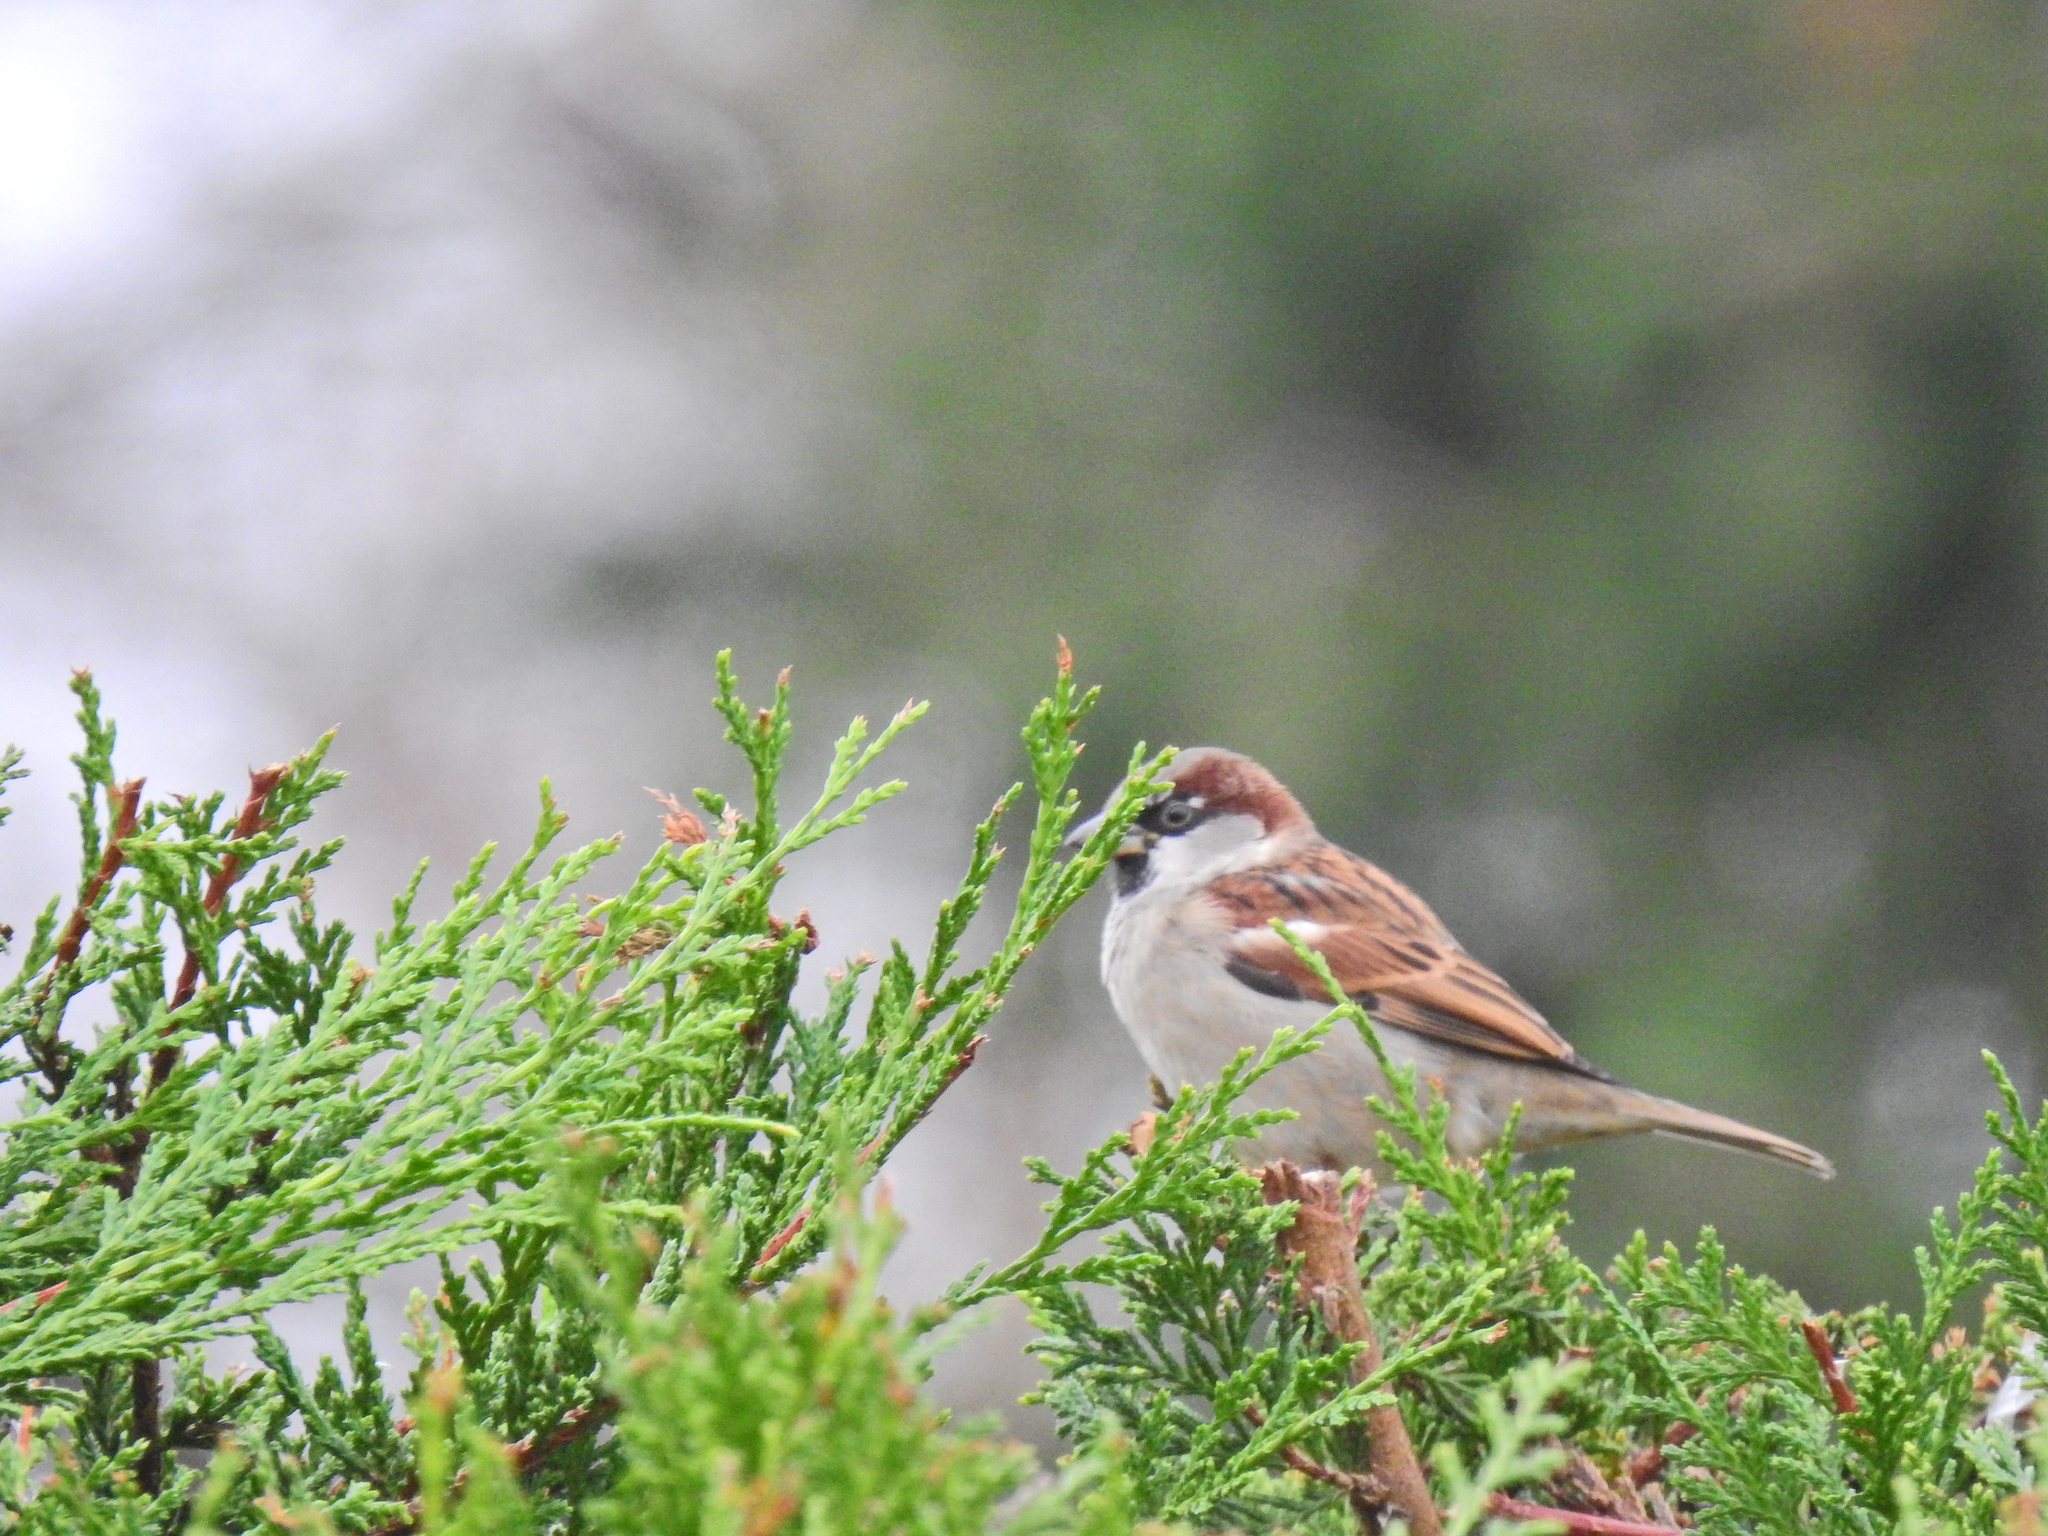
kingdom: Animalia
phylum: Chordata
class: Aves
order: Passeriformes
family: Passeridae
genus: Passer
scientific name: Passer domesticus
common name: House sparrow
